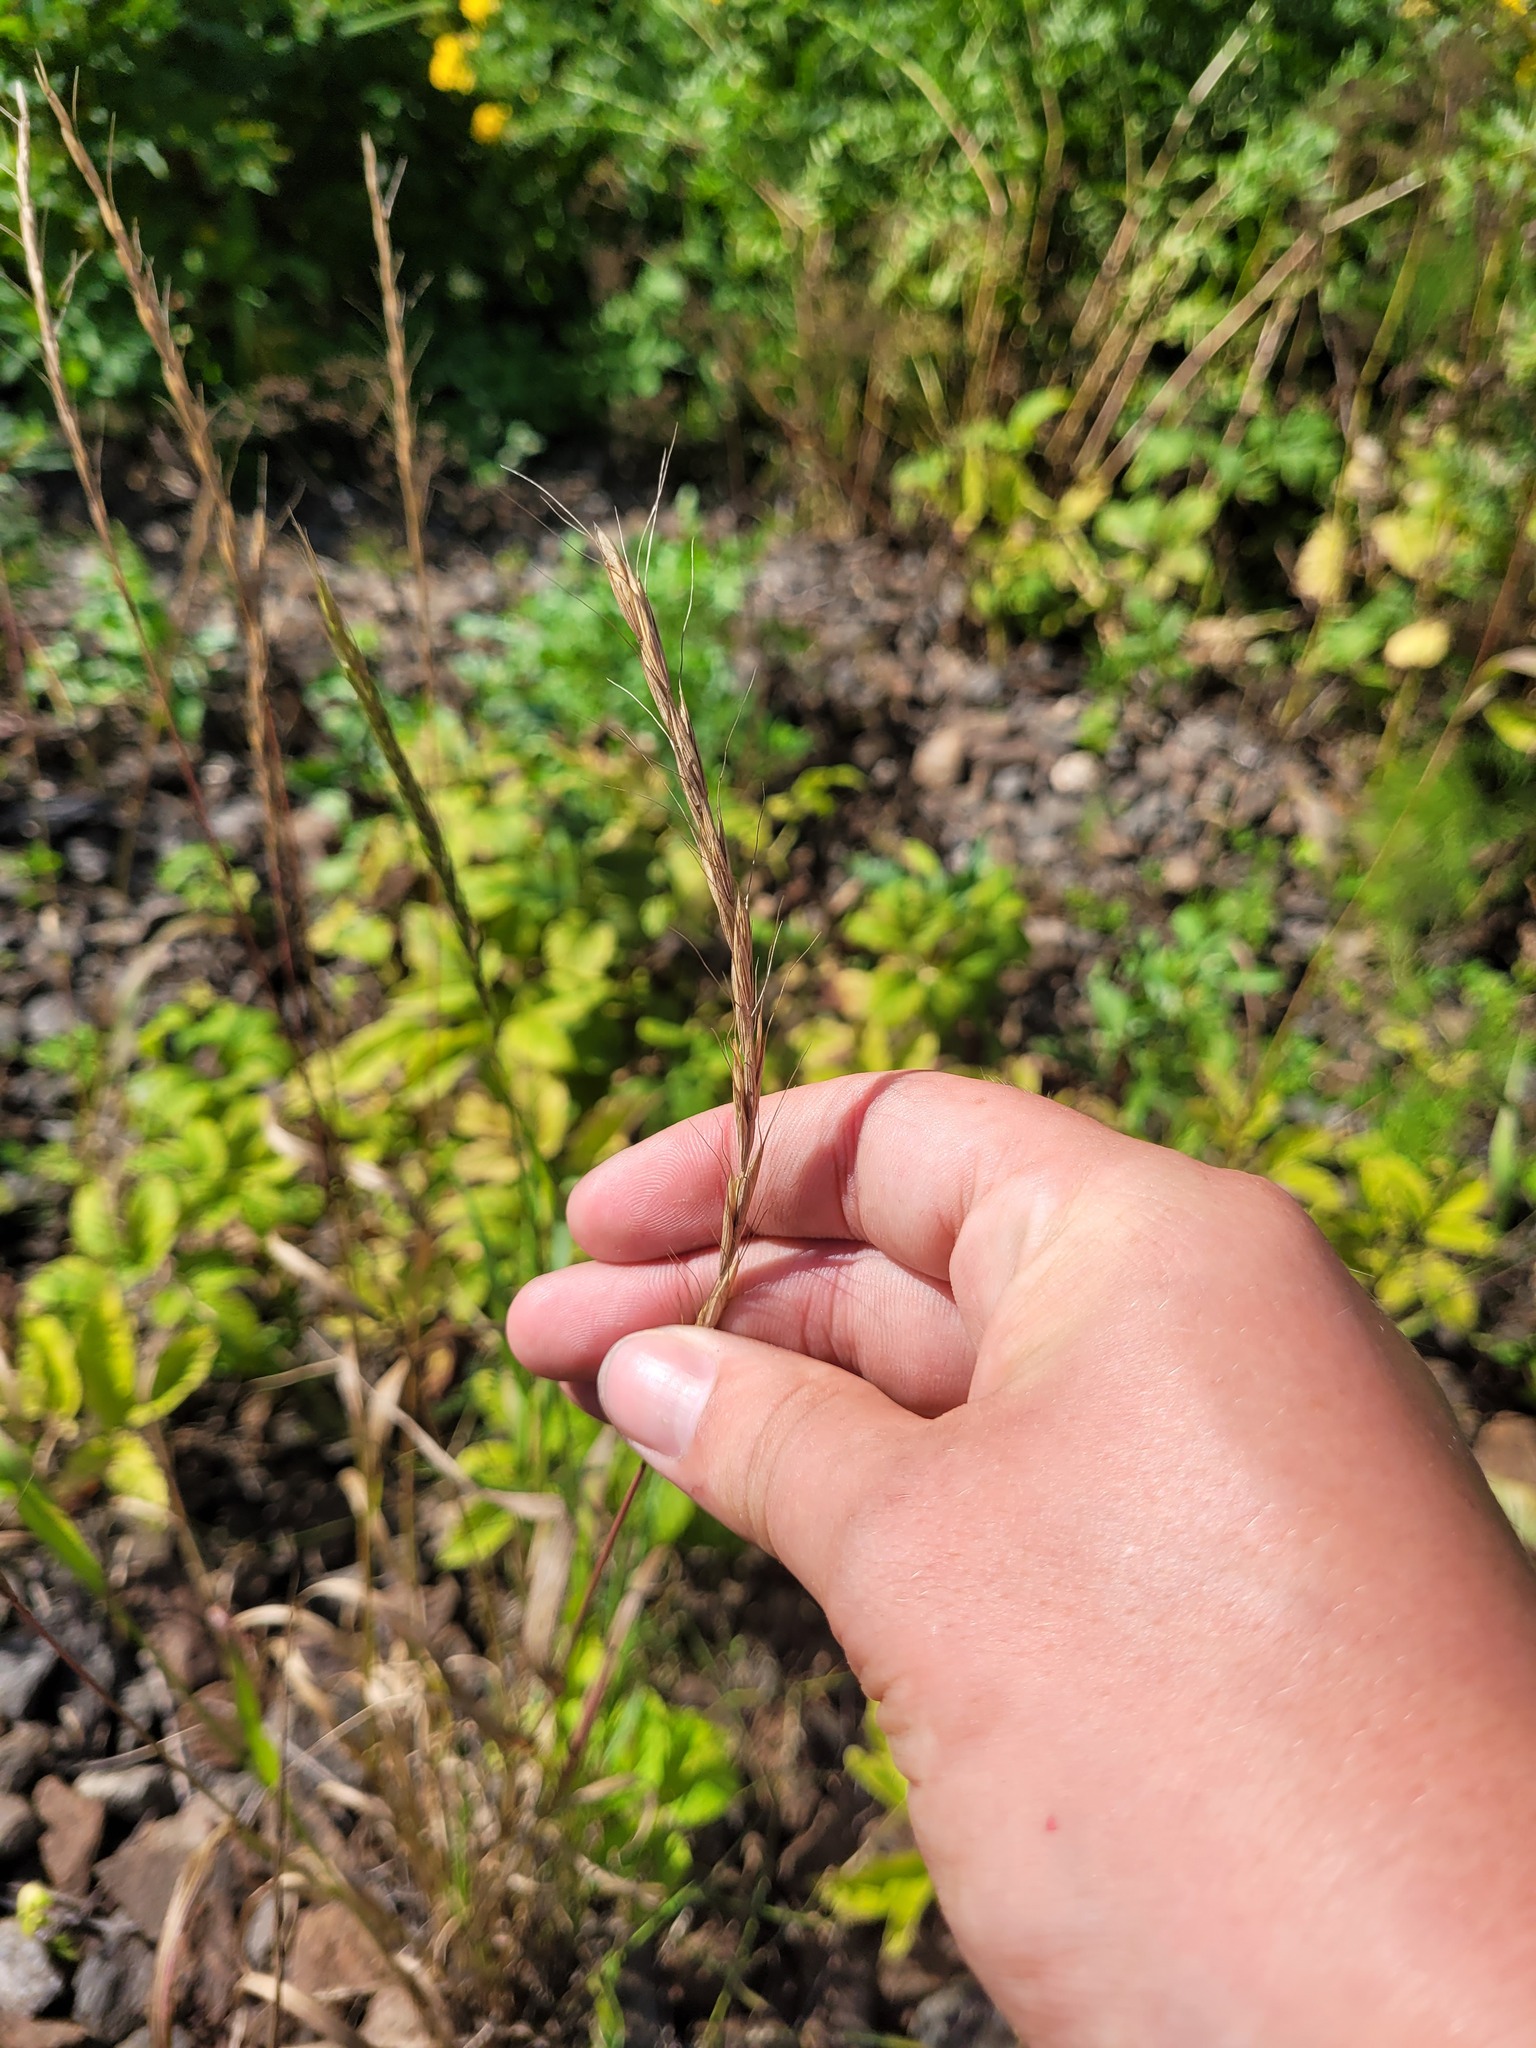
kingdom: Plantae
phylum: Tracheophyta
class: Liliopsida
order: Poales
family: Poaceae
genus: Elymus
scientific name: Elymus caninus
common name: Bearded couch
